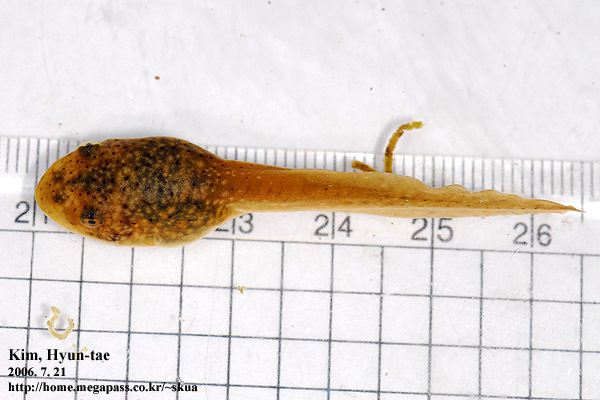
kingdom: Animalia
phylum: Chordata
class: Amphibia
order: Anura
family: Ranidae
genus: Lithobates
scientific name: Lithobates catesbeianus
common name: American bullfrog
